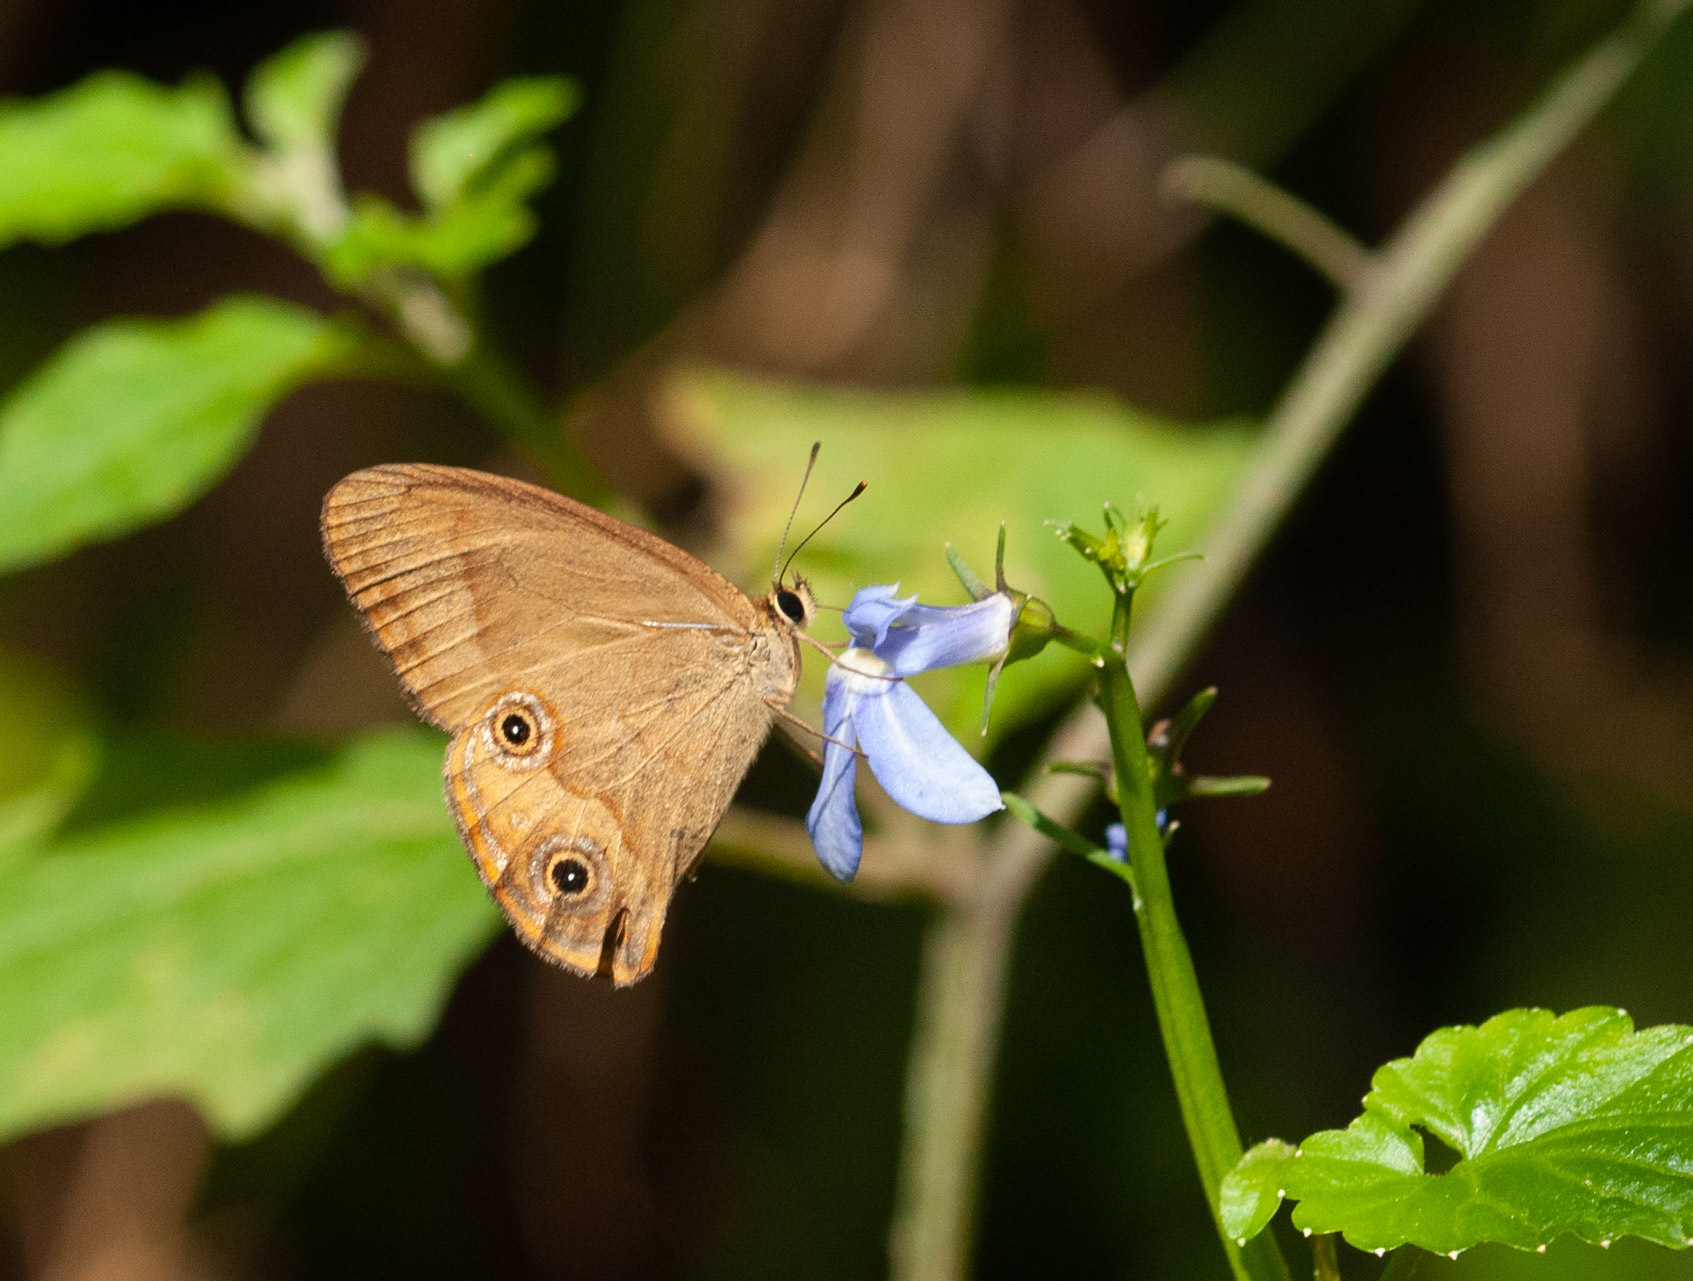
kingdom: Animalia
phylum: Arthropoda
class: Insecta
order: Lepidoptera
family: Nymphalidae
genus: Hypocysta
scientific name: Hypocysta metirius
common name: Brown ringlet
